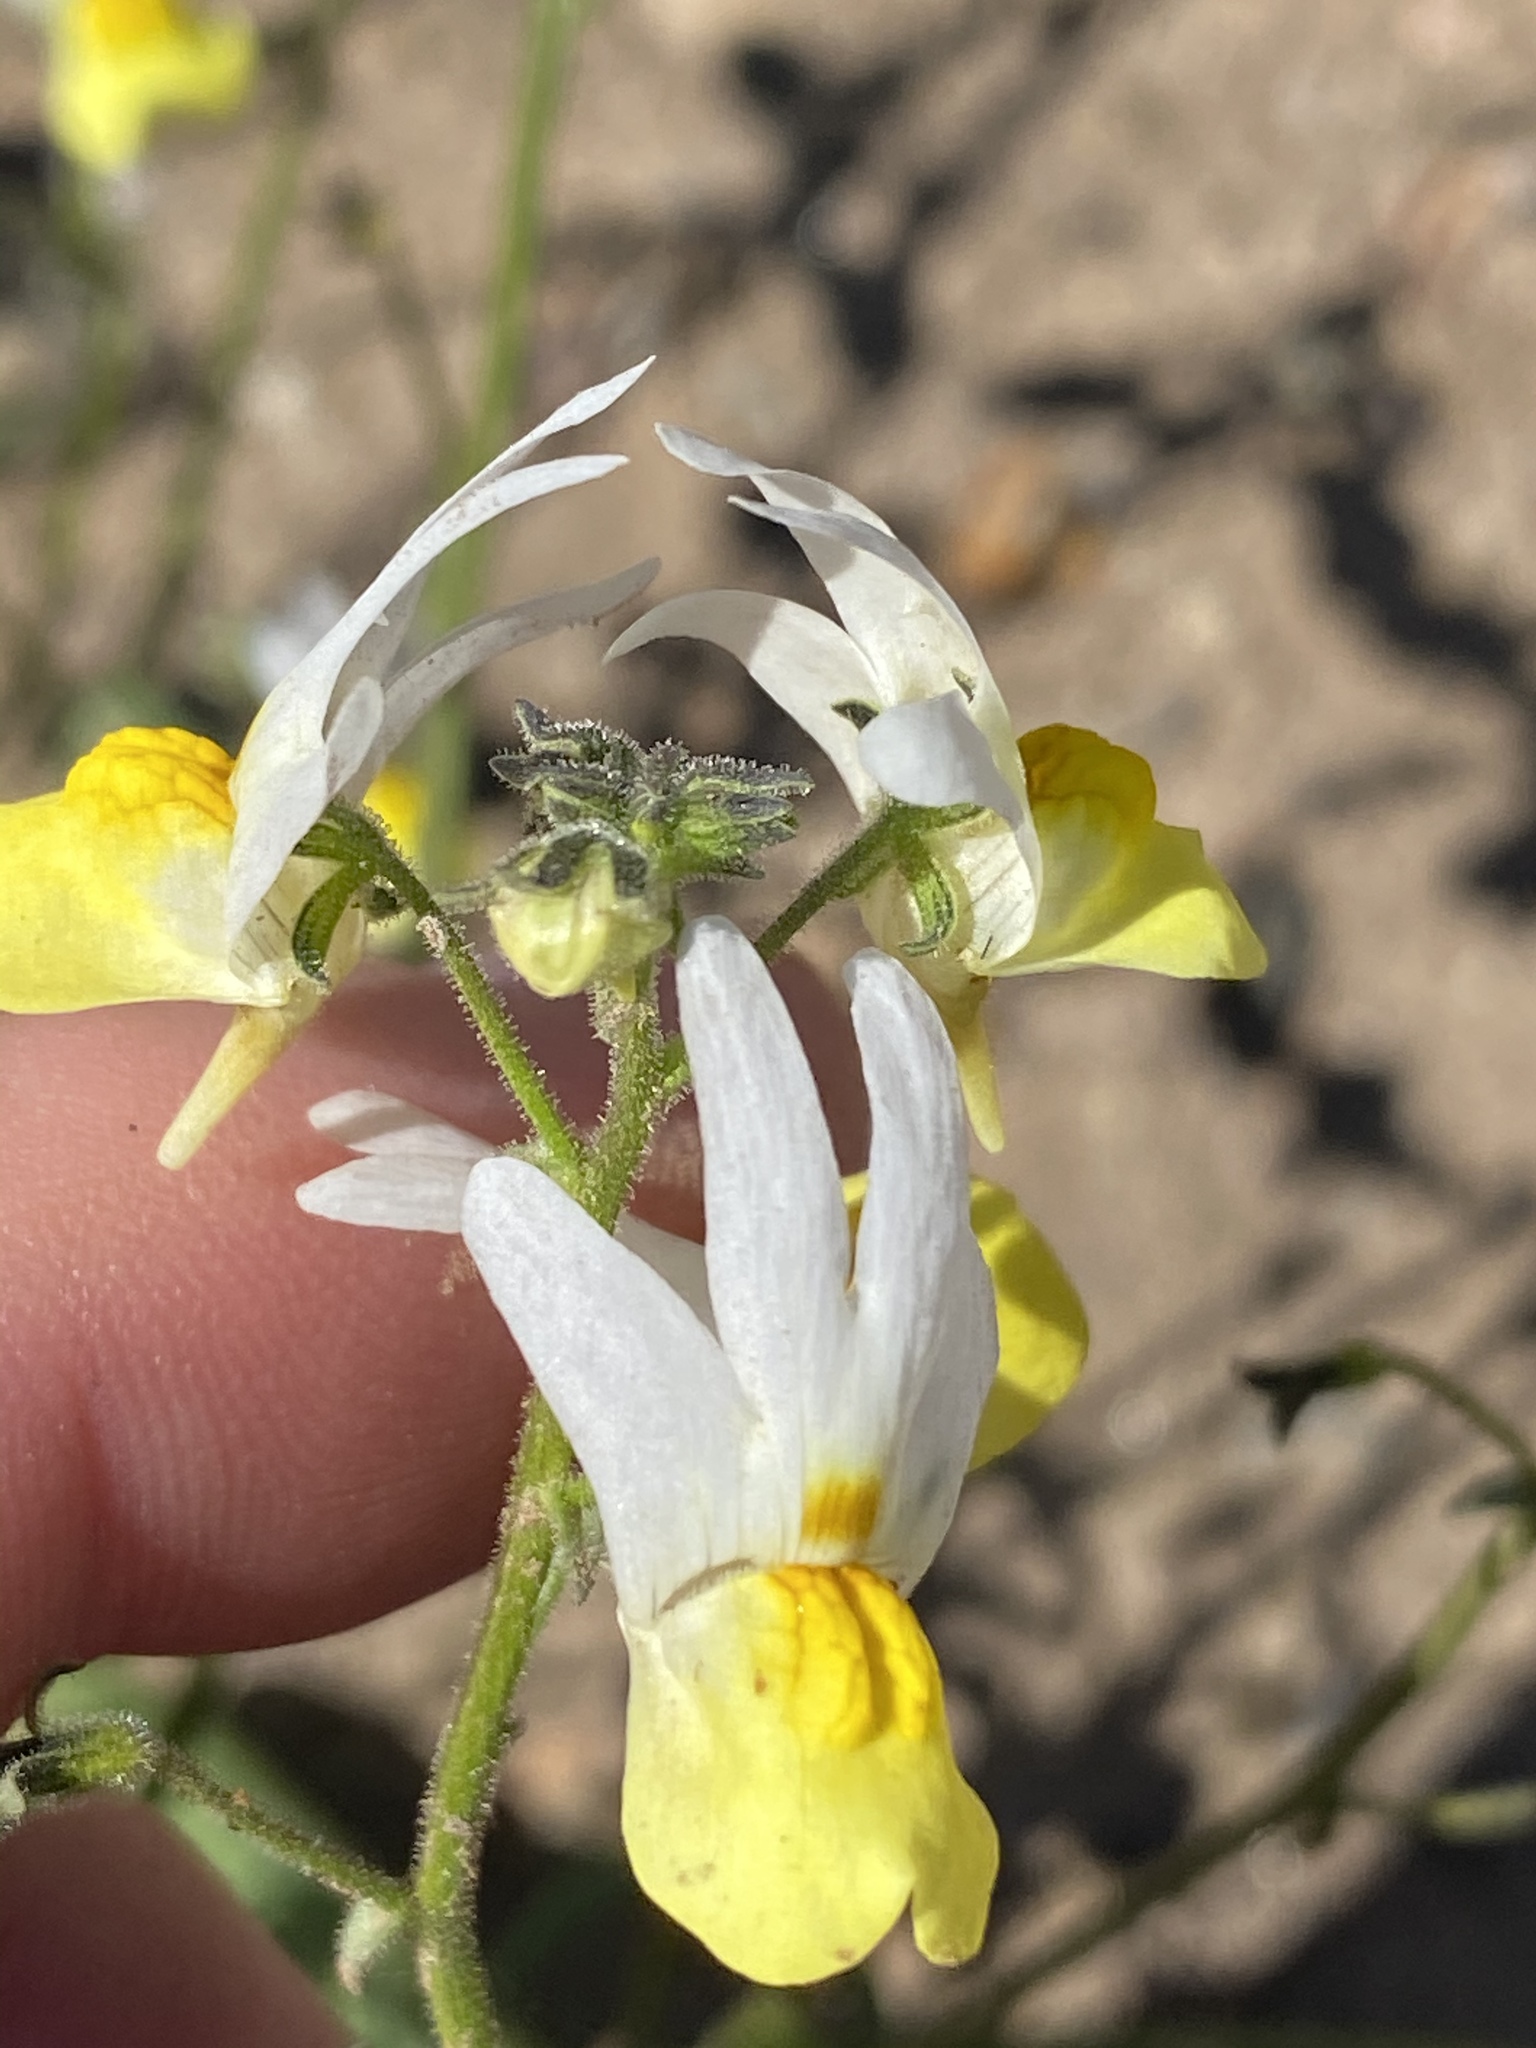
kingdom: Plantae
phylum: Tracheophyta
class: Magnoliopsida
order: Lamiales
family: Scrophulariaceae
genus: Nemesia
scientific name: Nemesia ligulata
